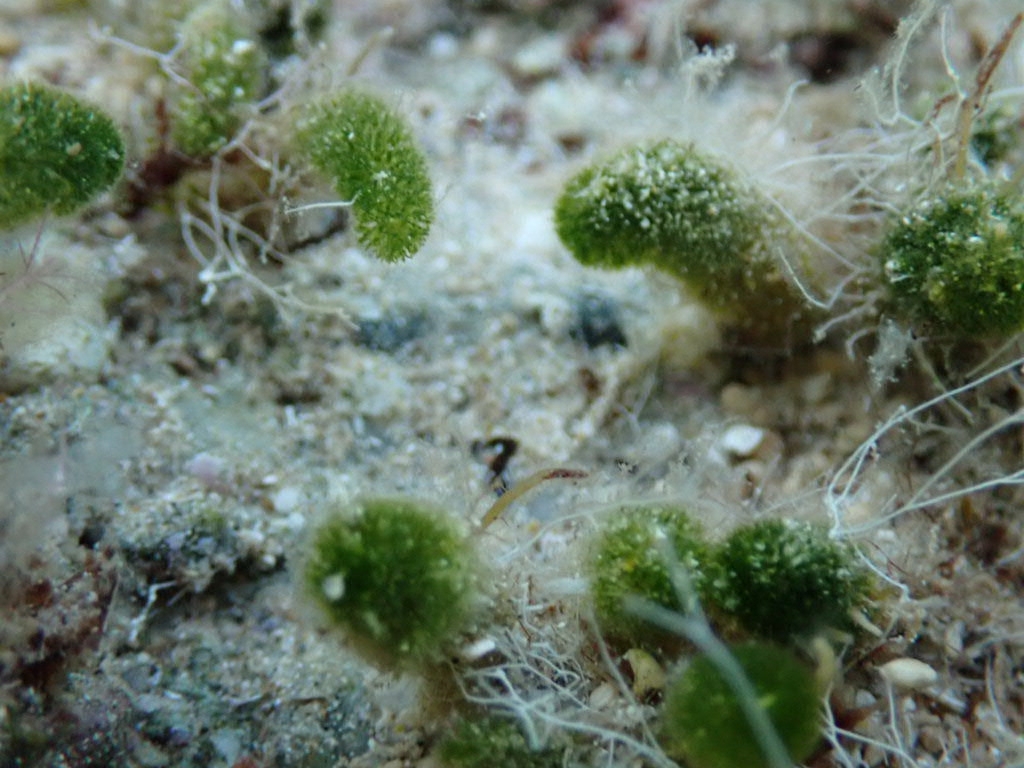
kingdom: Plantae
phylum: Chlorophyta
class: Ulvophyceae
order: Dasycladales
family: Dasycladaceae
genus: Dasycladus
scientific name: Dasycladus vermicularis
